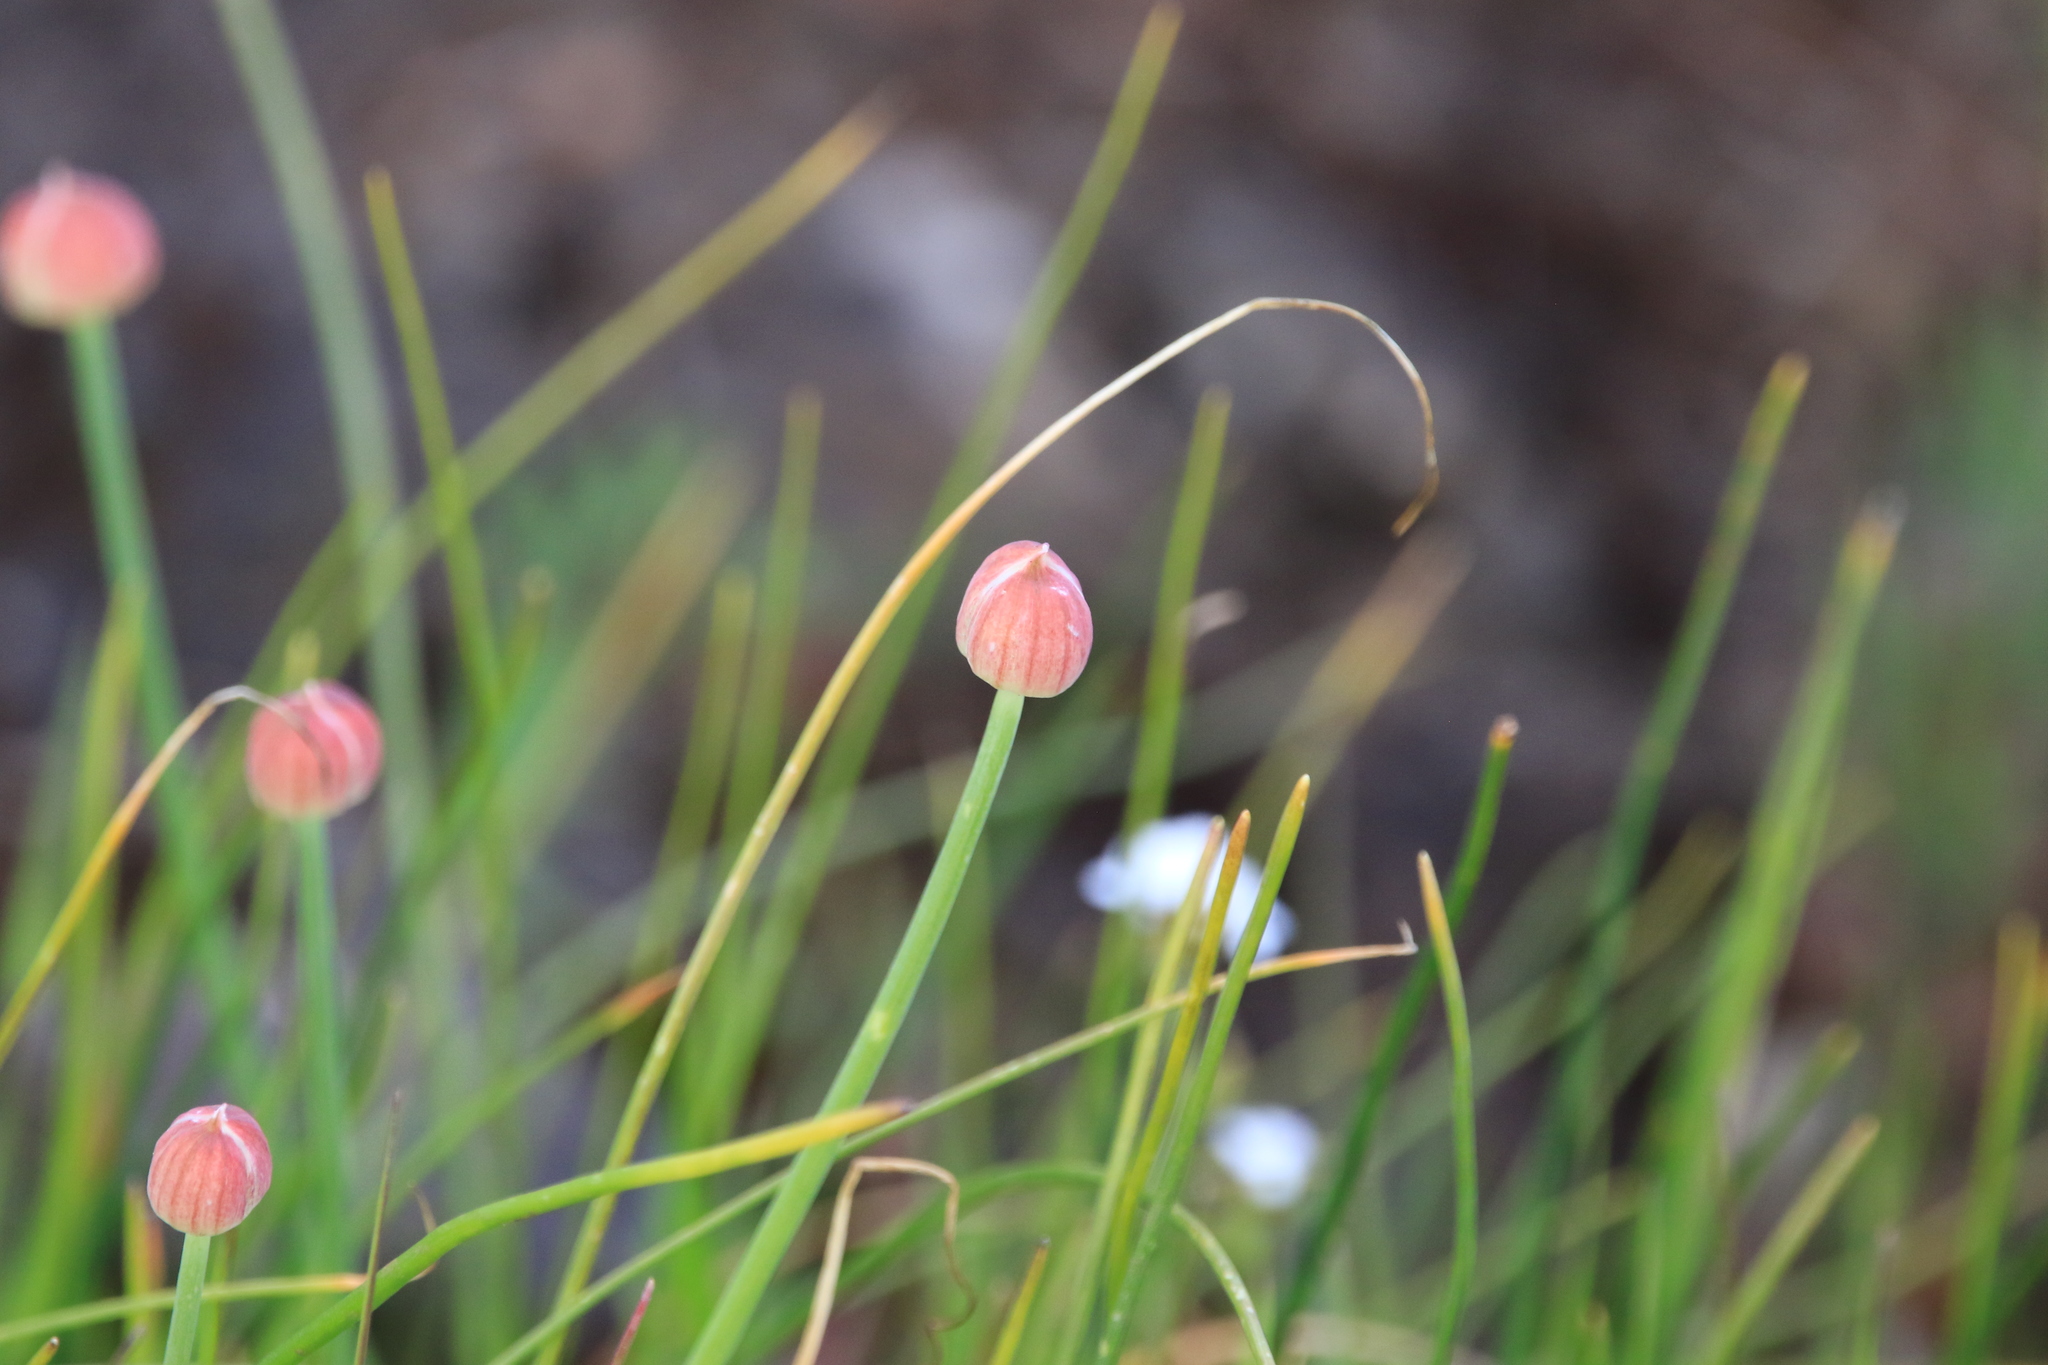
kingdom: Plantae
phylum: Tracheophyta
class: Liliopsida
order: Asparagales
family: Amaryllidaceae
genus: Allium
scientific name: Allium amplectens
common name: Narrow-leaved onion
